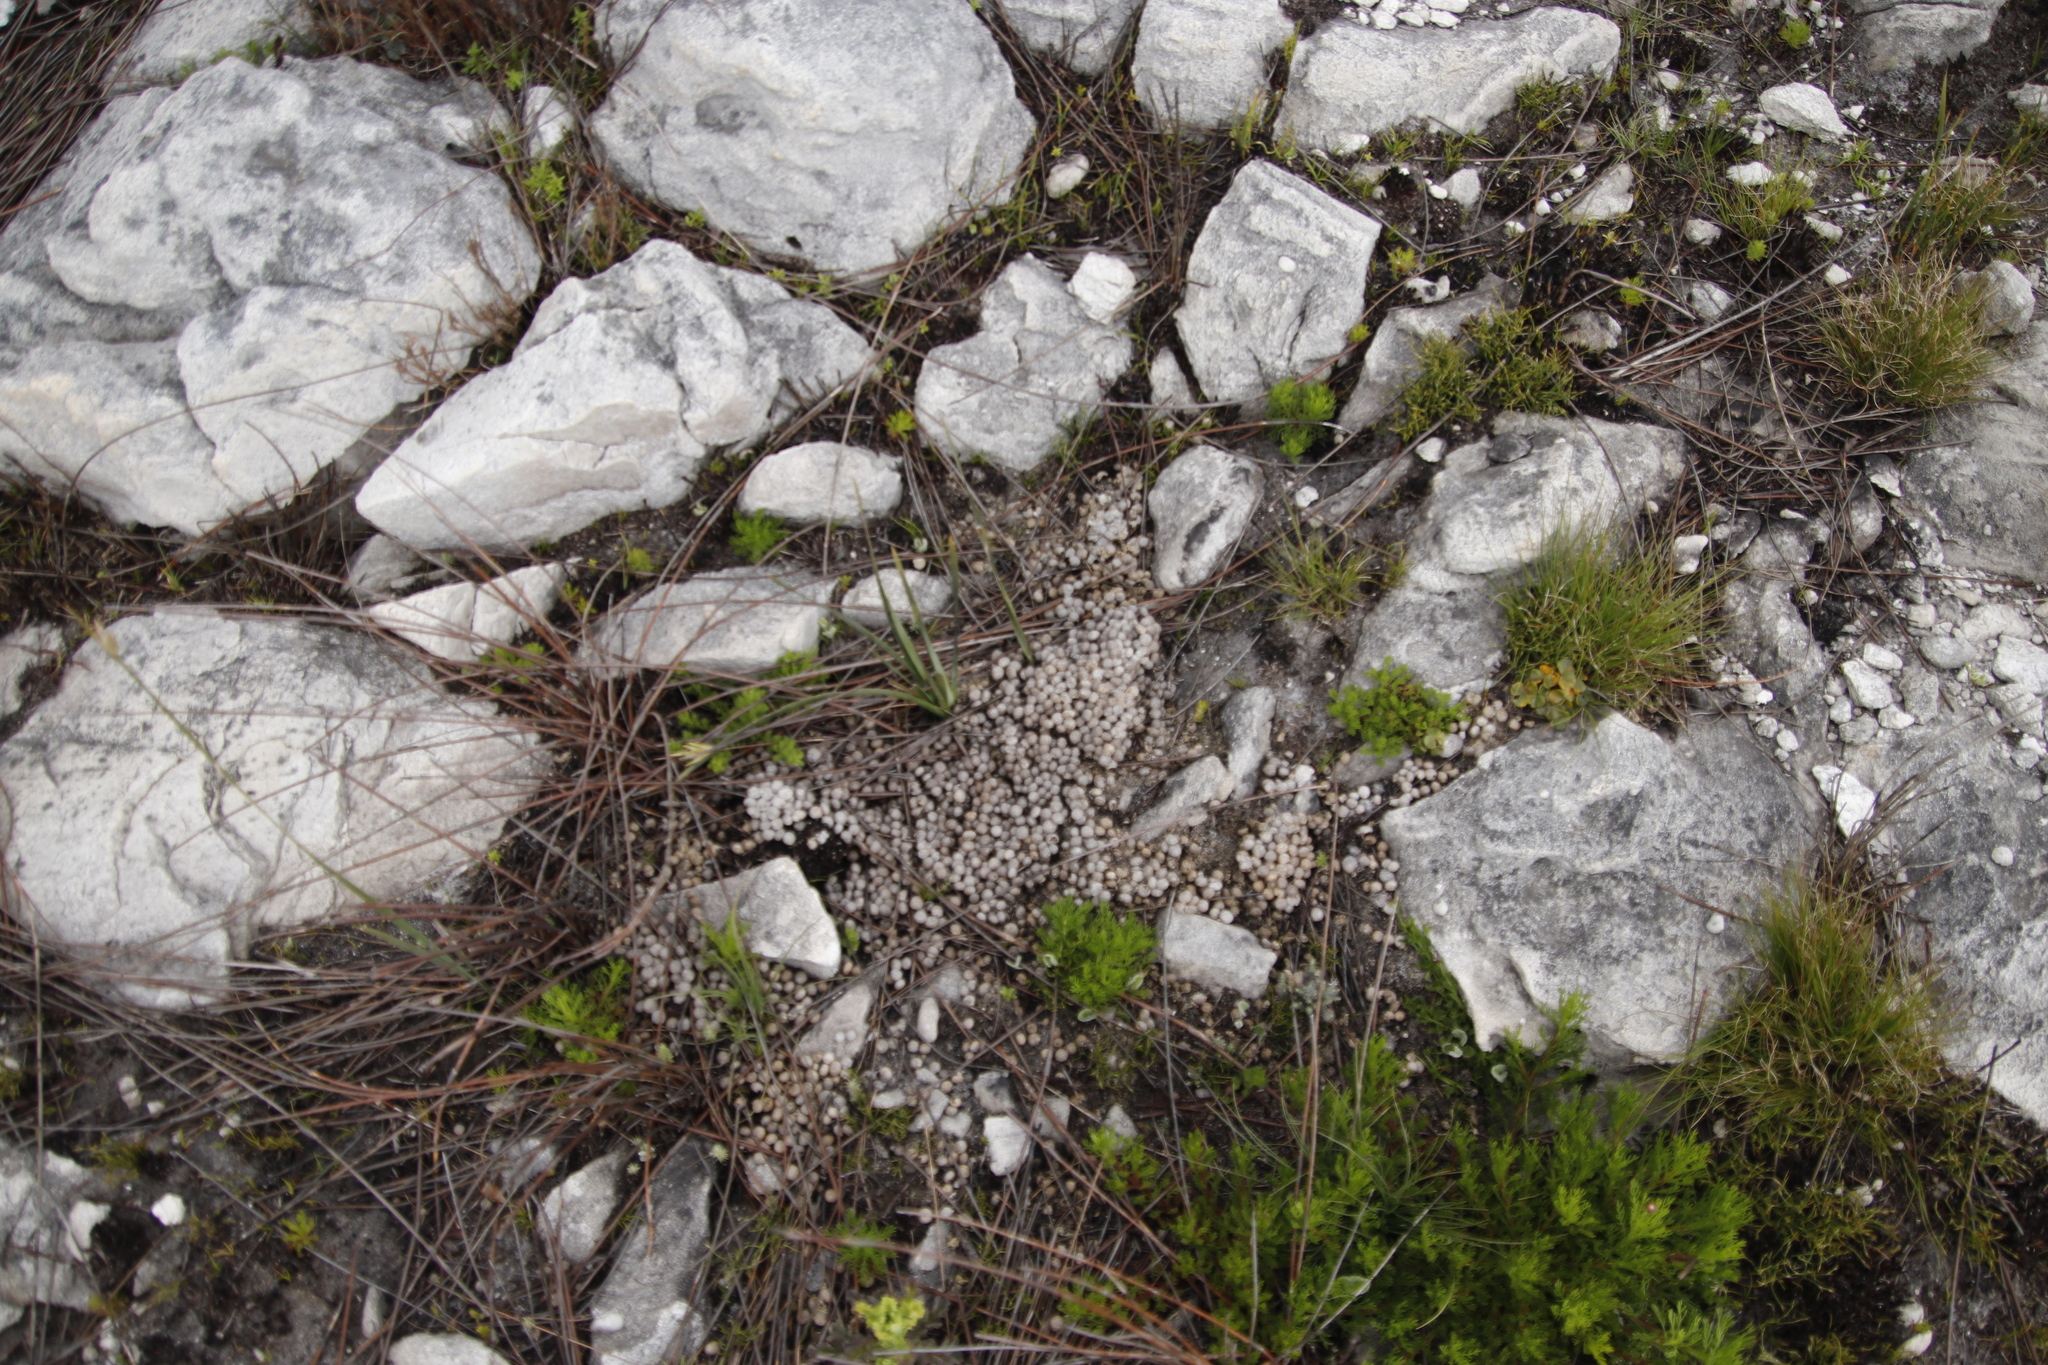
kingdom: Animalia
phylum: Chordata
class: Mammalia
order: Lagomorpha
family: Leporidae
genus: Pronolagus
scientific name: Pronolagus saundersiae
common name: Hewitt's red rock hare
